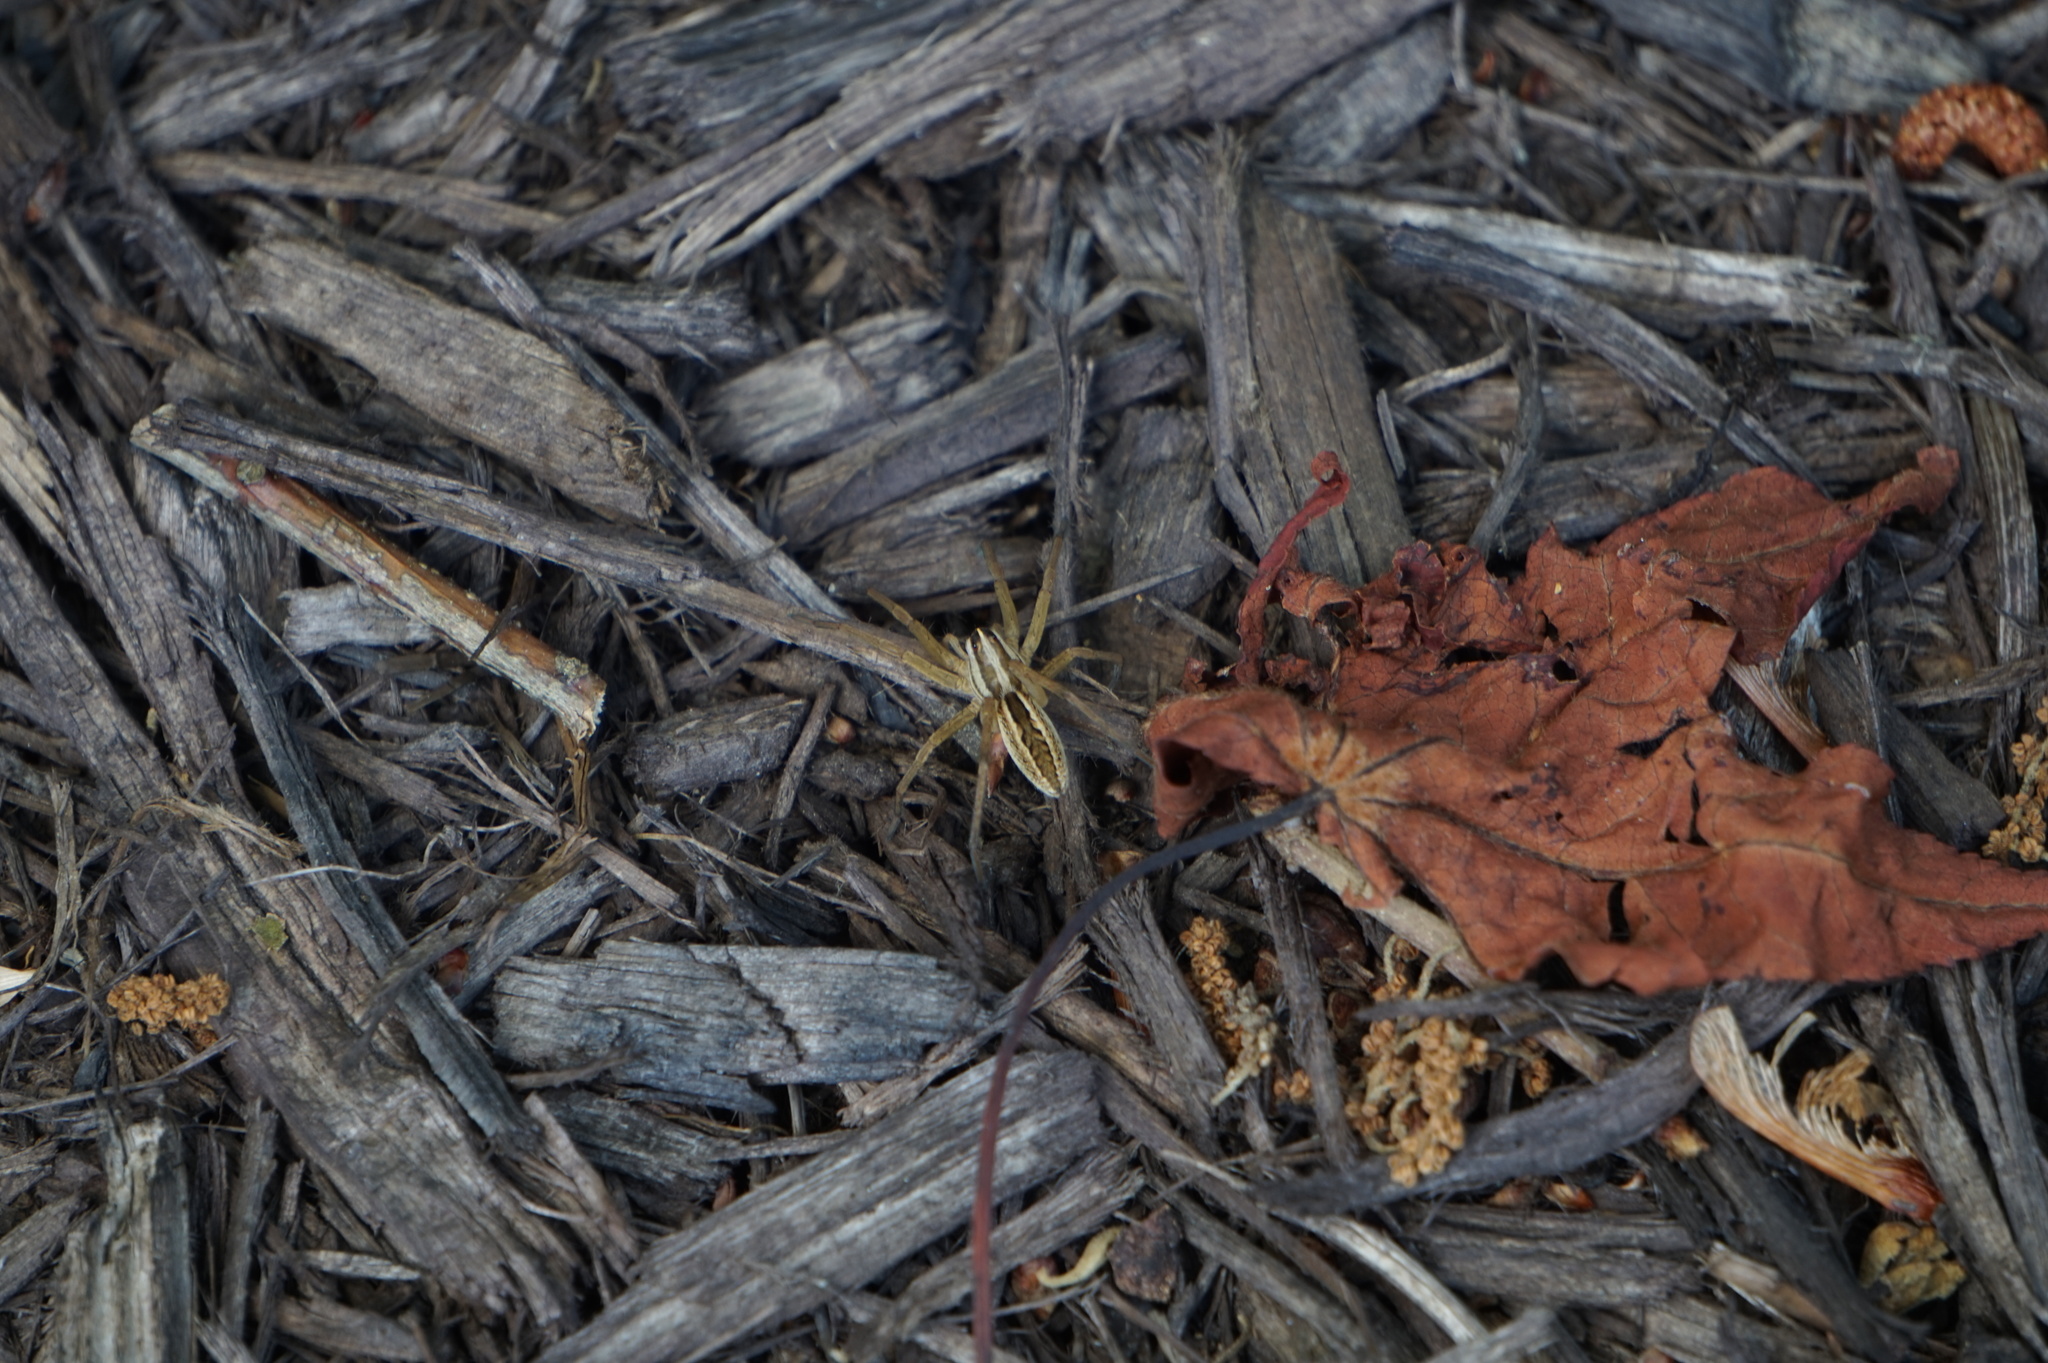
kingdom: Animalia
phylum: Arthropoda
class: Arachnida
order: Araneae
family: Lycosidae
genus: Rabidosa
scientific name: Rabidosa rabida
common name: Rabid wolf spider
